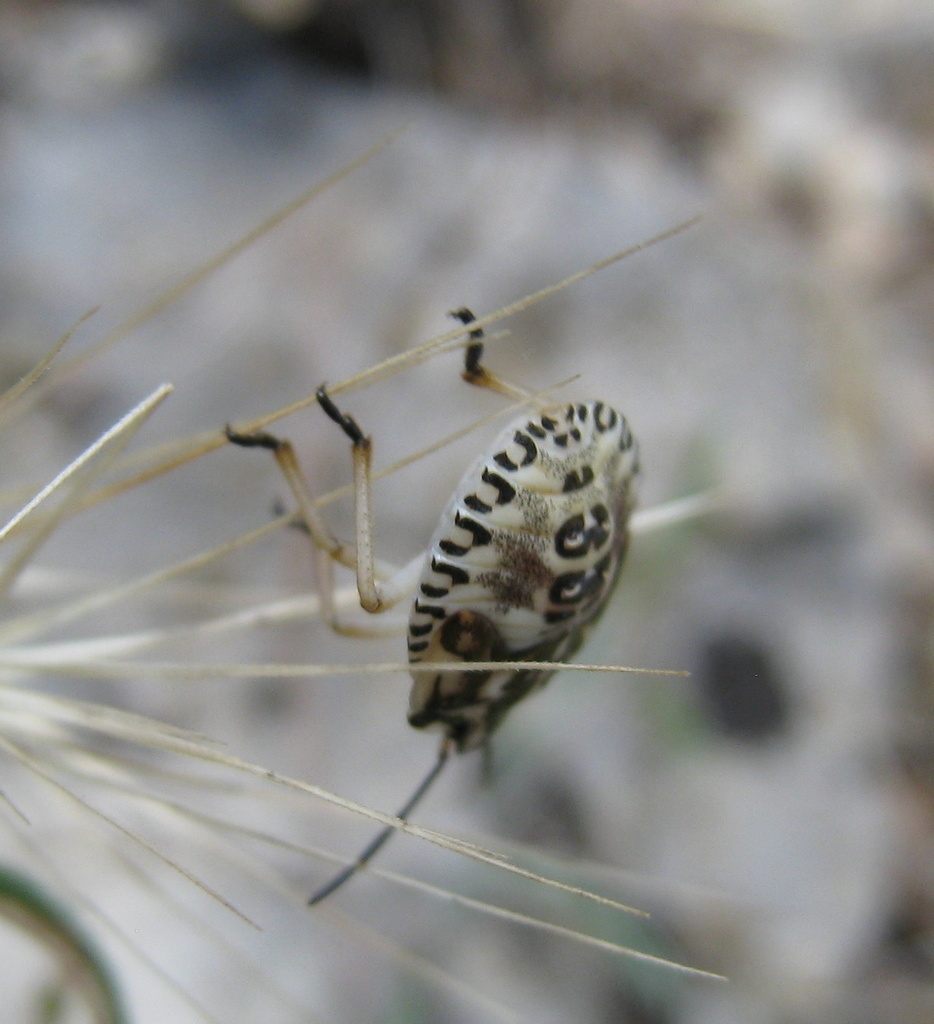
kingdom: Animalia
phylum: Arthropoda
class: Insecta
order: Hemiptera
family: Pentatomidae
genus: Carpocoris
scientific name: Carpocoris purpureipennis
